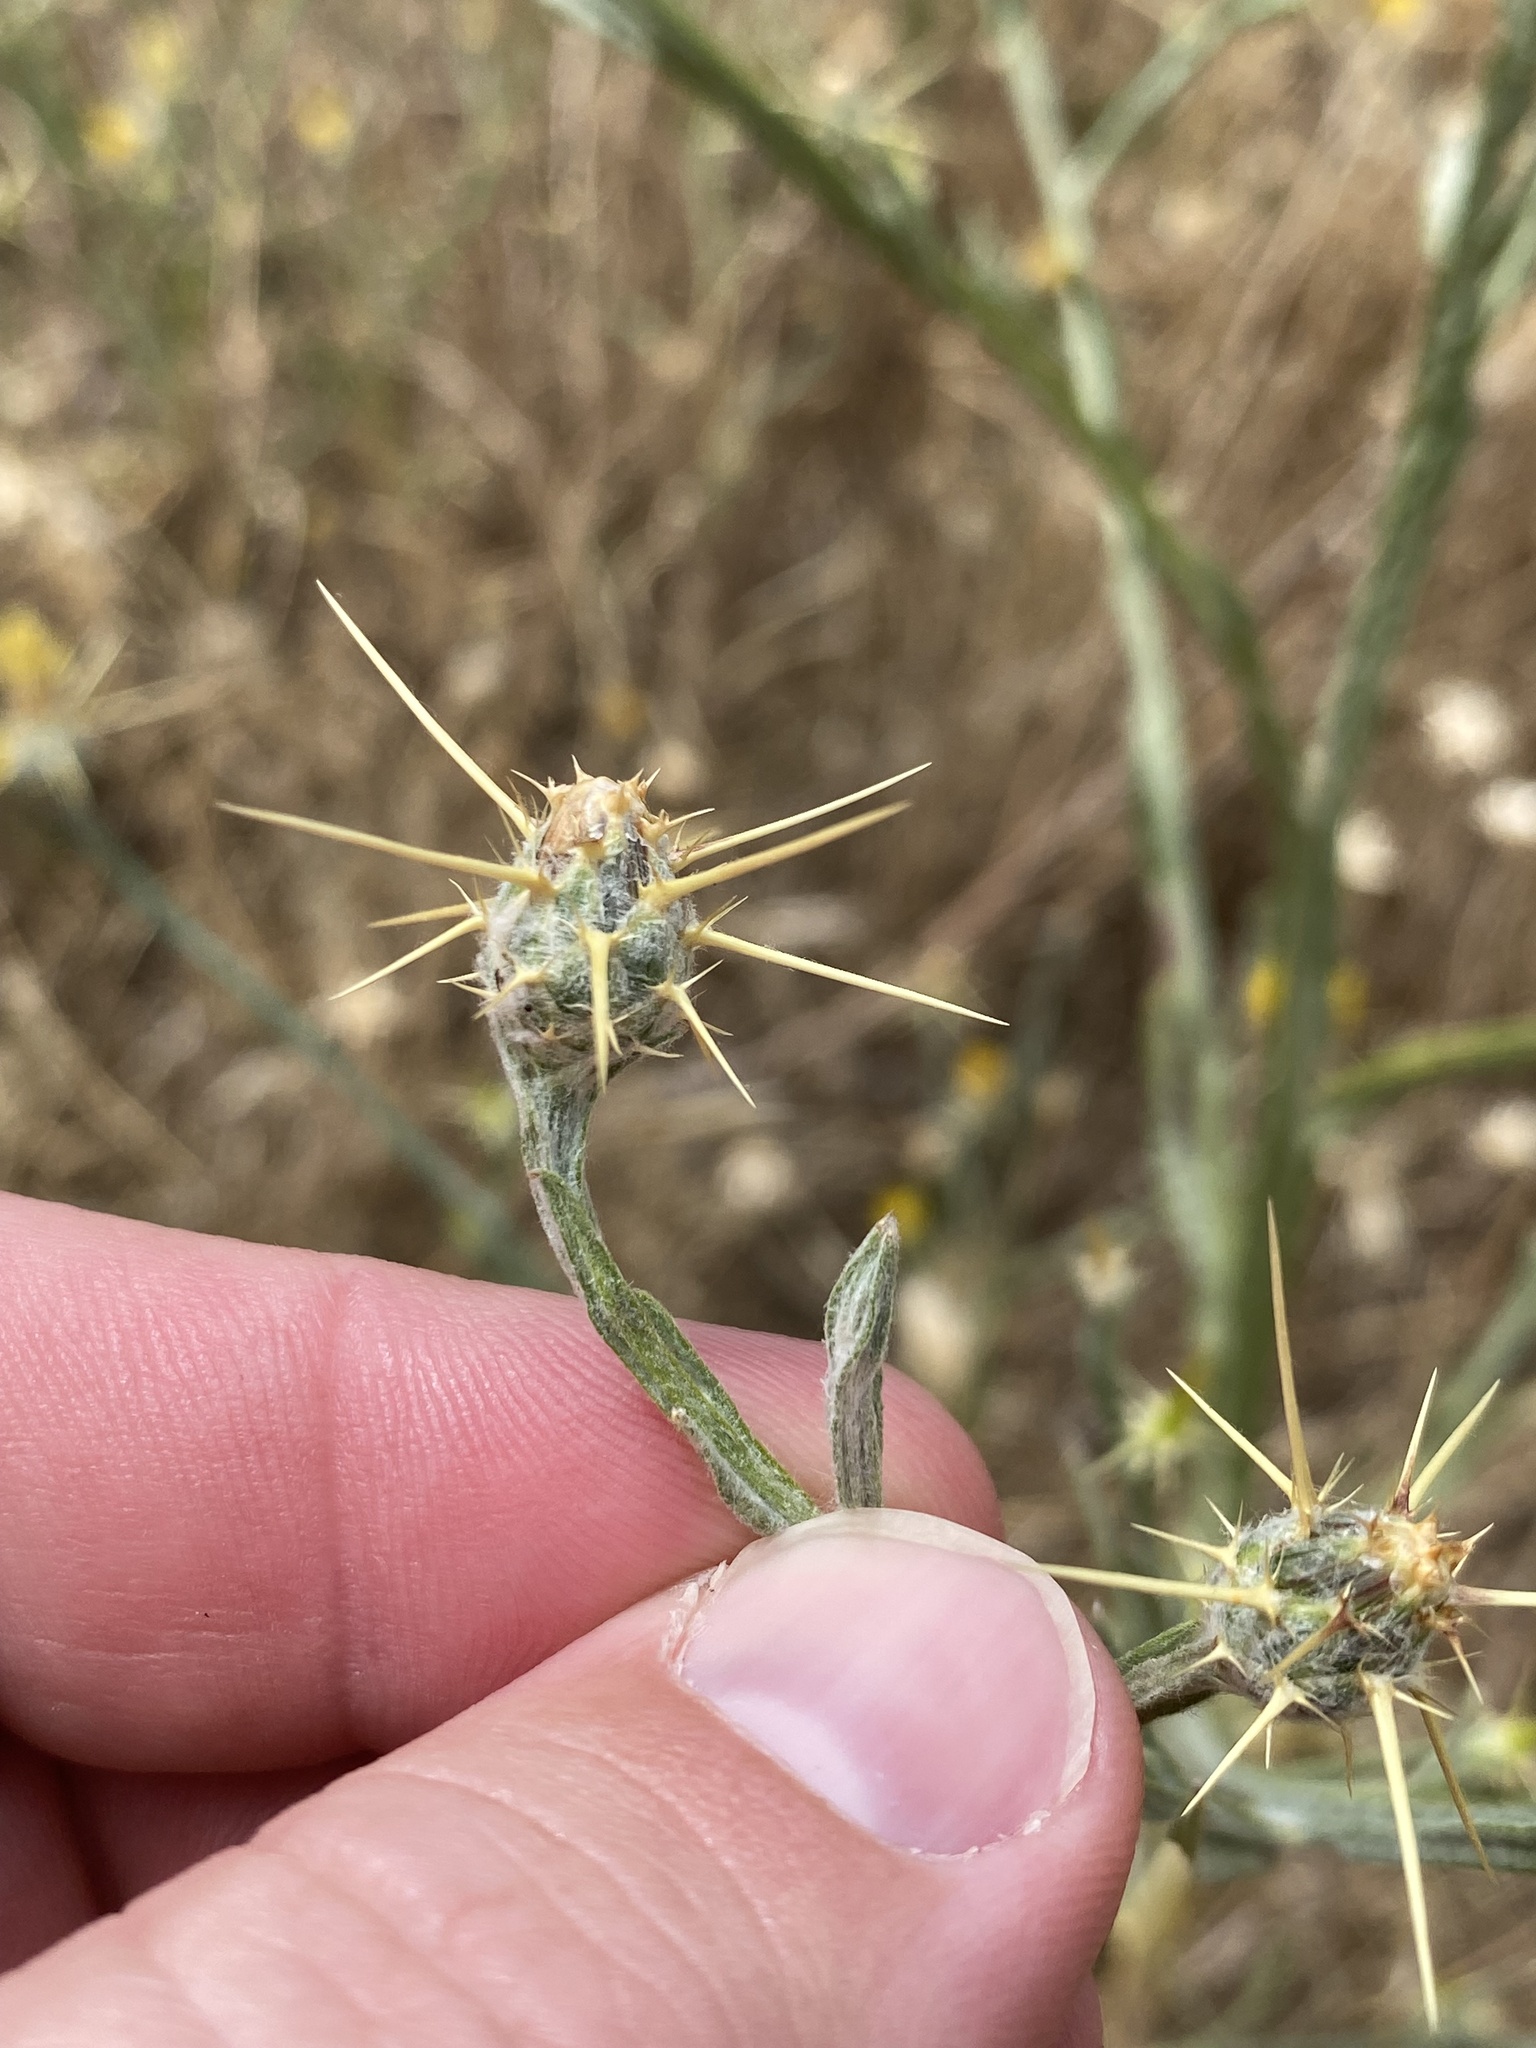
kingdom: Plantae
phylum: Tracheophyta
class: Magnoliopsida
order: Asterales
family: Asteraceae
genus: Centaurea
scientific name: Centaurea solstitialis
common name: Yellow star-thistle
